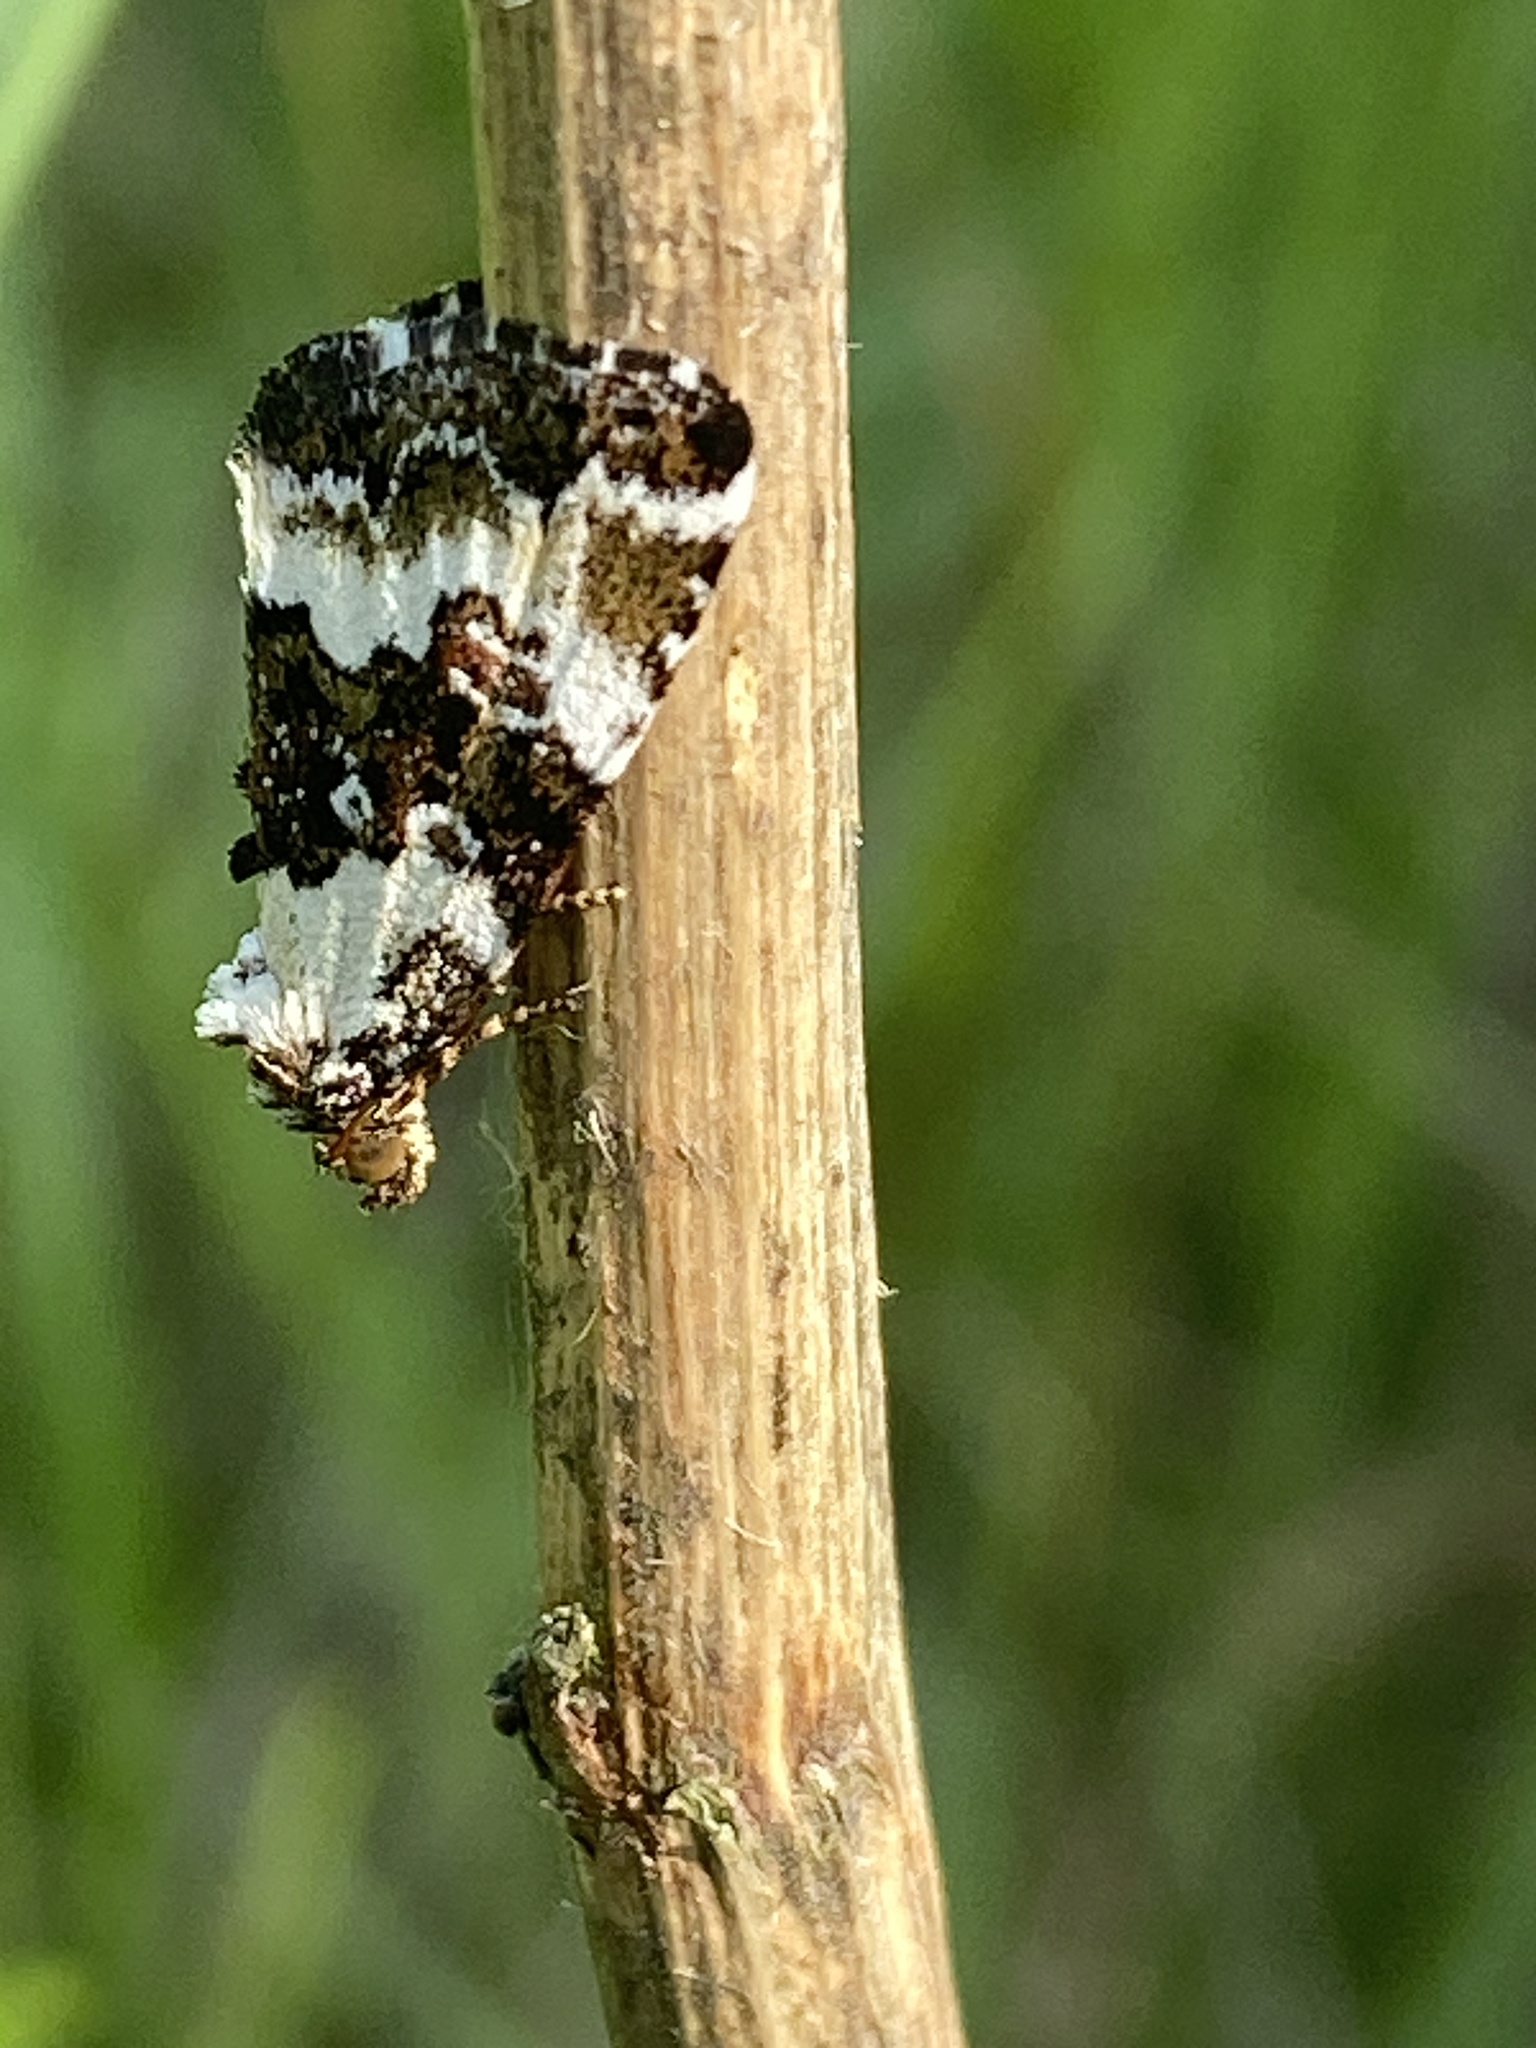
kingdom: Animalia
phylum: Arthropoda
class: Insecta
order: Lepidoptera
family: Noctuidae
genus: Deltote
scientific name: Deltote deceptoria
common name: Pretty marbled
